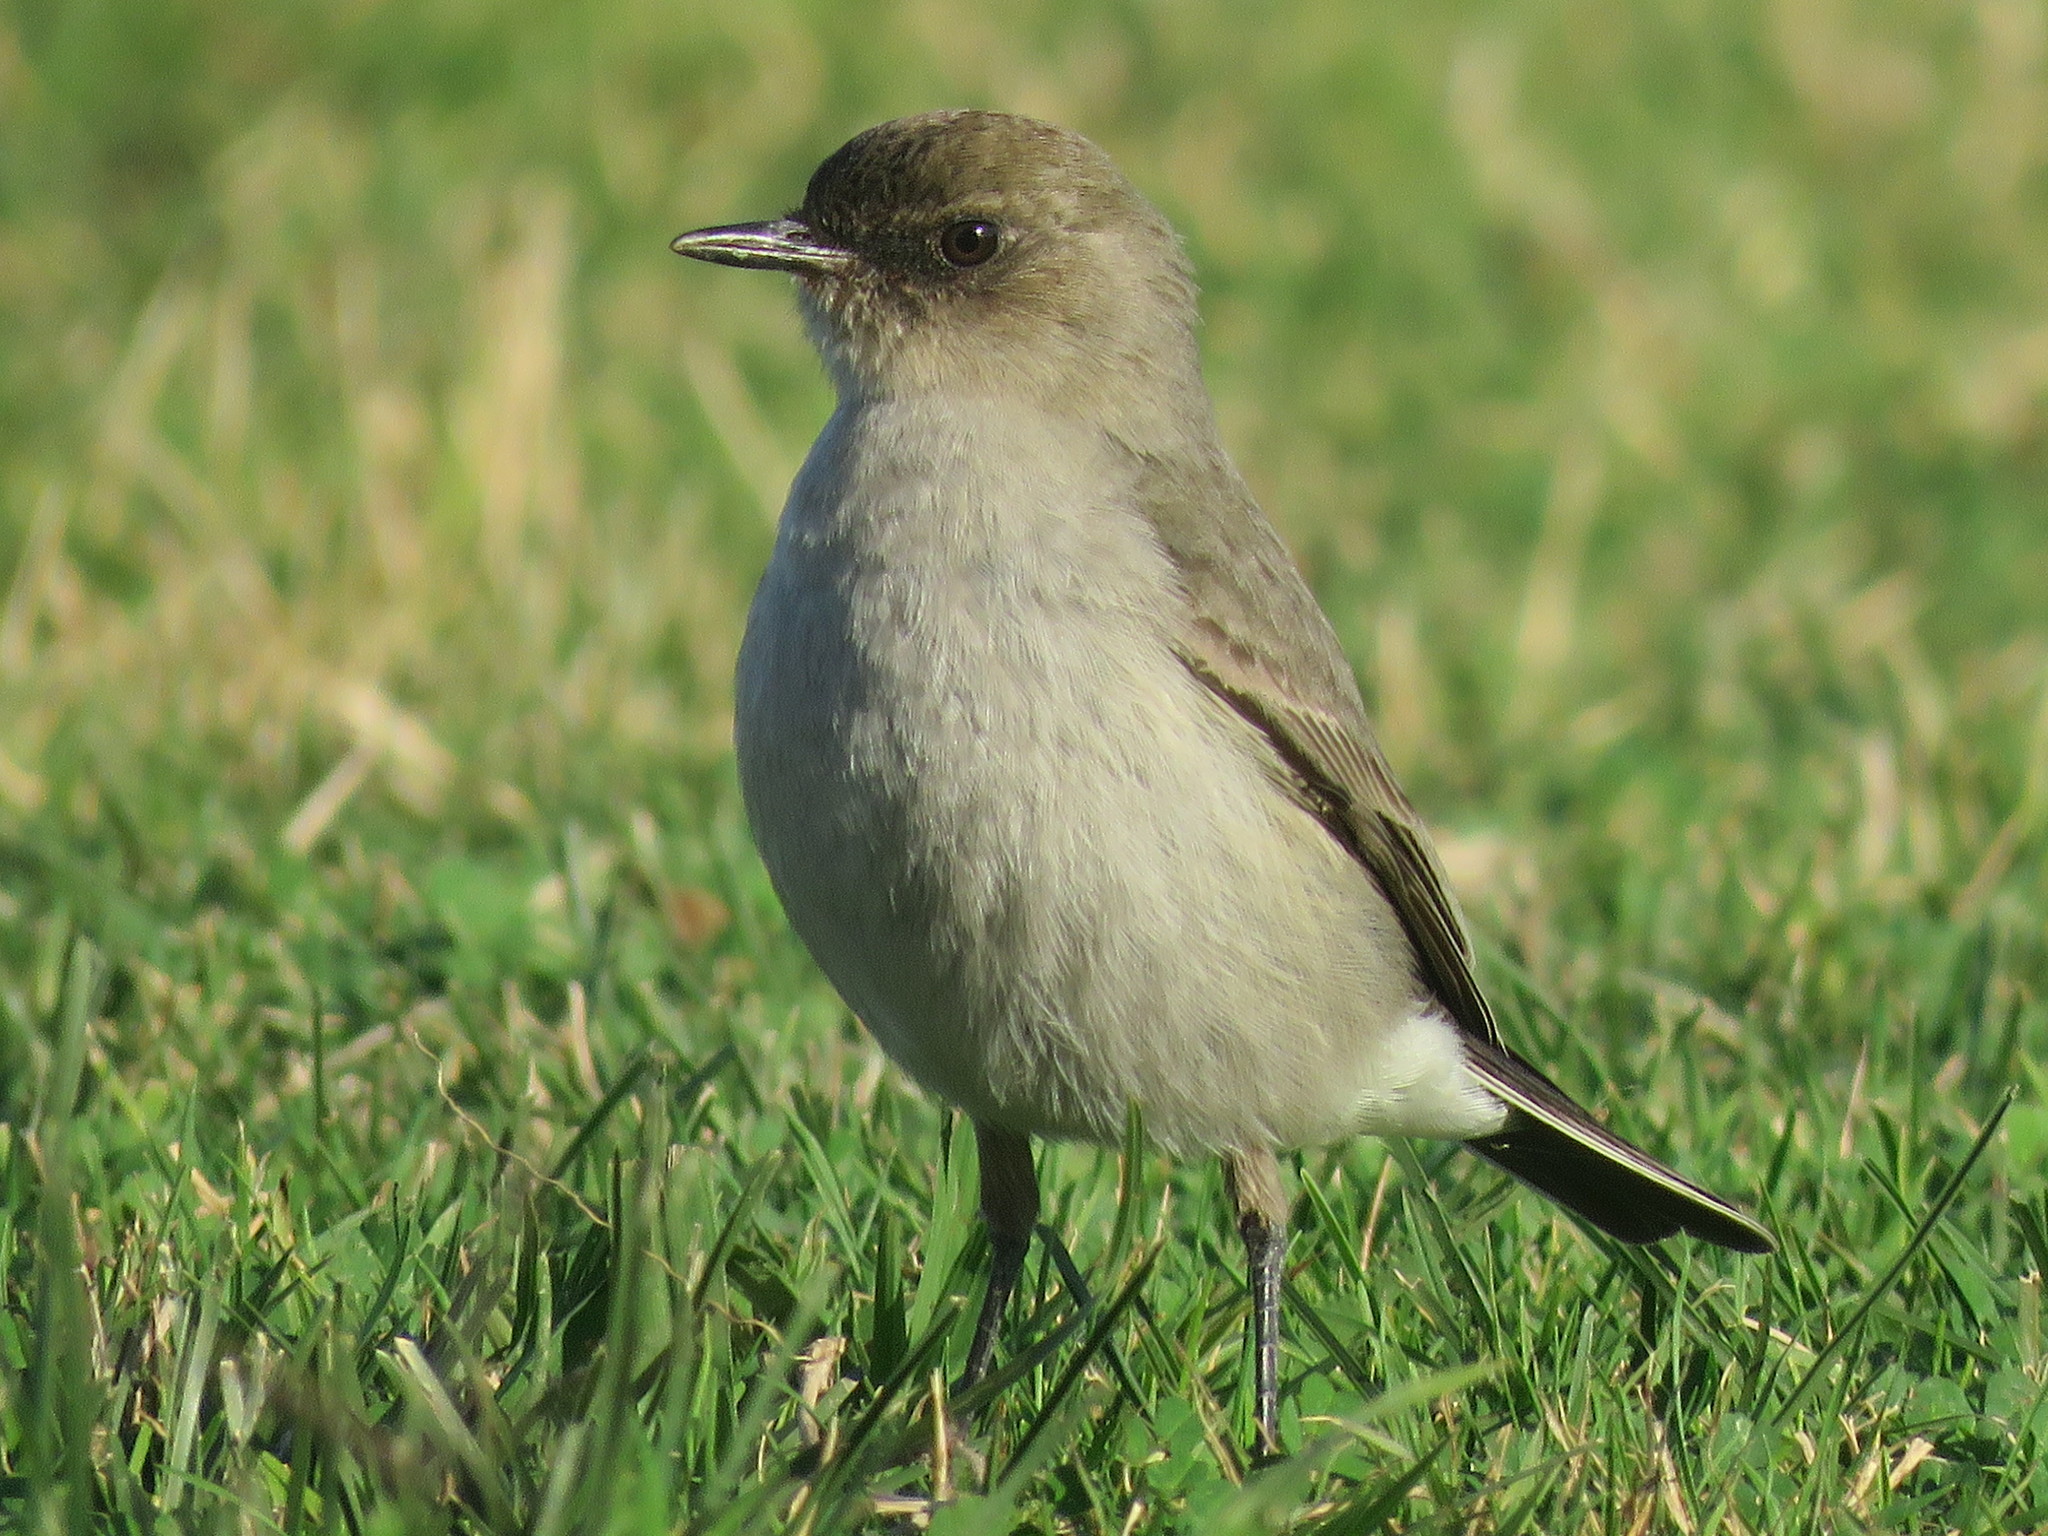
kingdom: Animalia
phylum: Chordata
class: Aves
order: Passeriformes
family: Tyrannidae
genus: Muscisaxicola
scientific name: Muscisaxicola maclovianus
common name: Dark-faced ground tyrant
